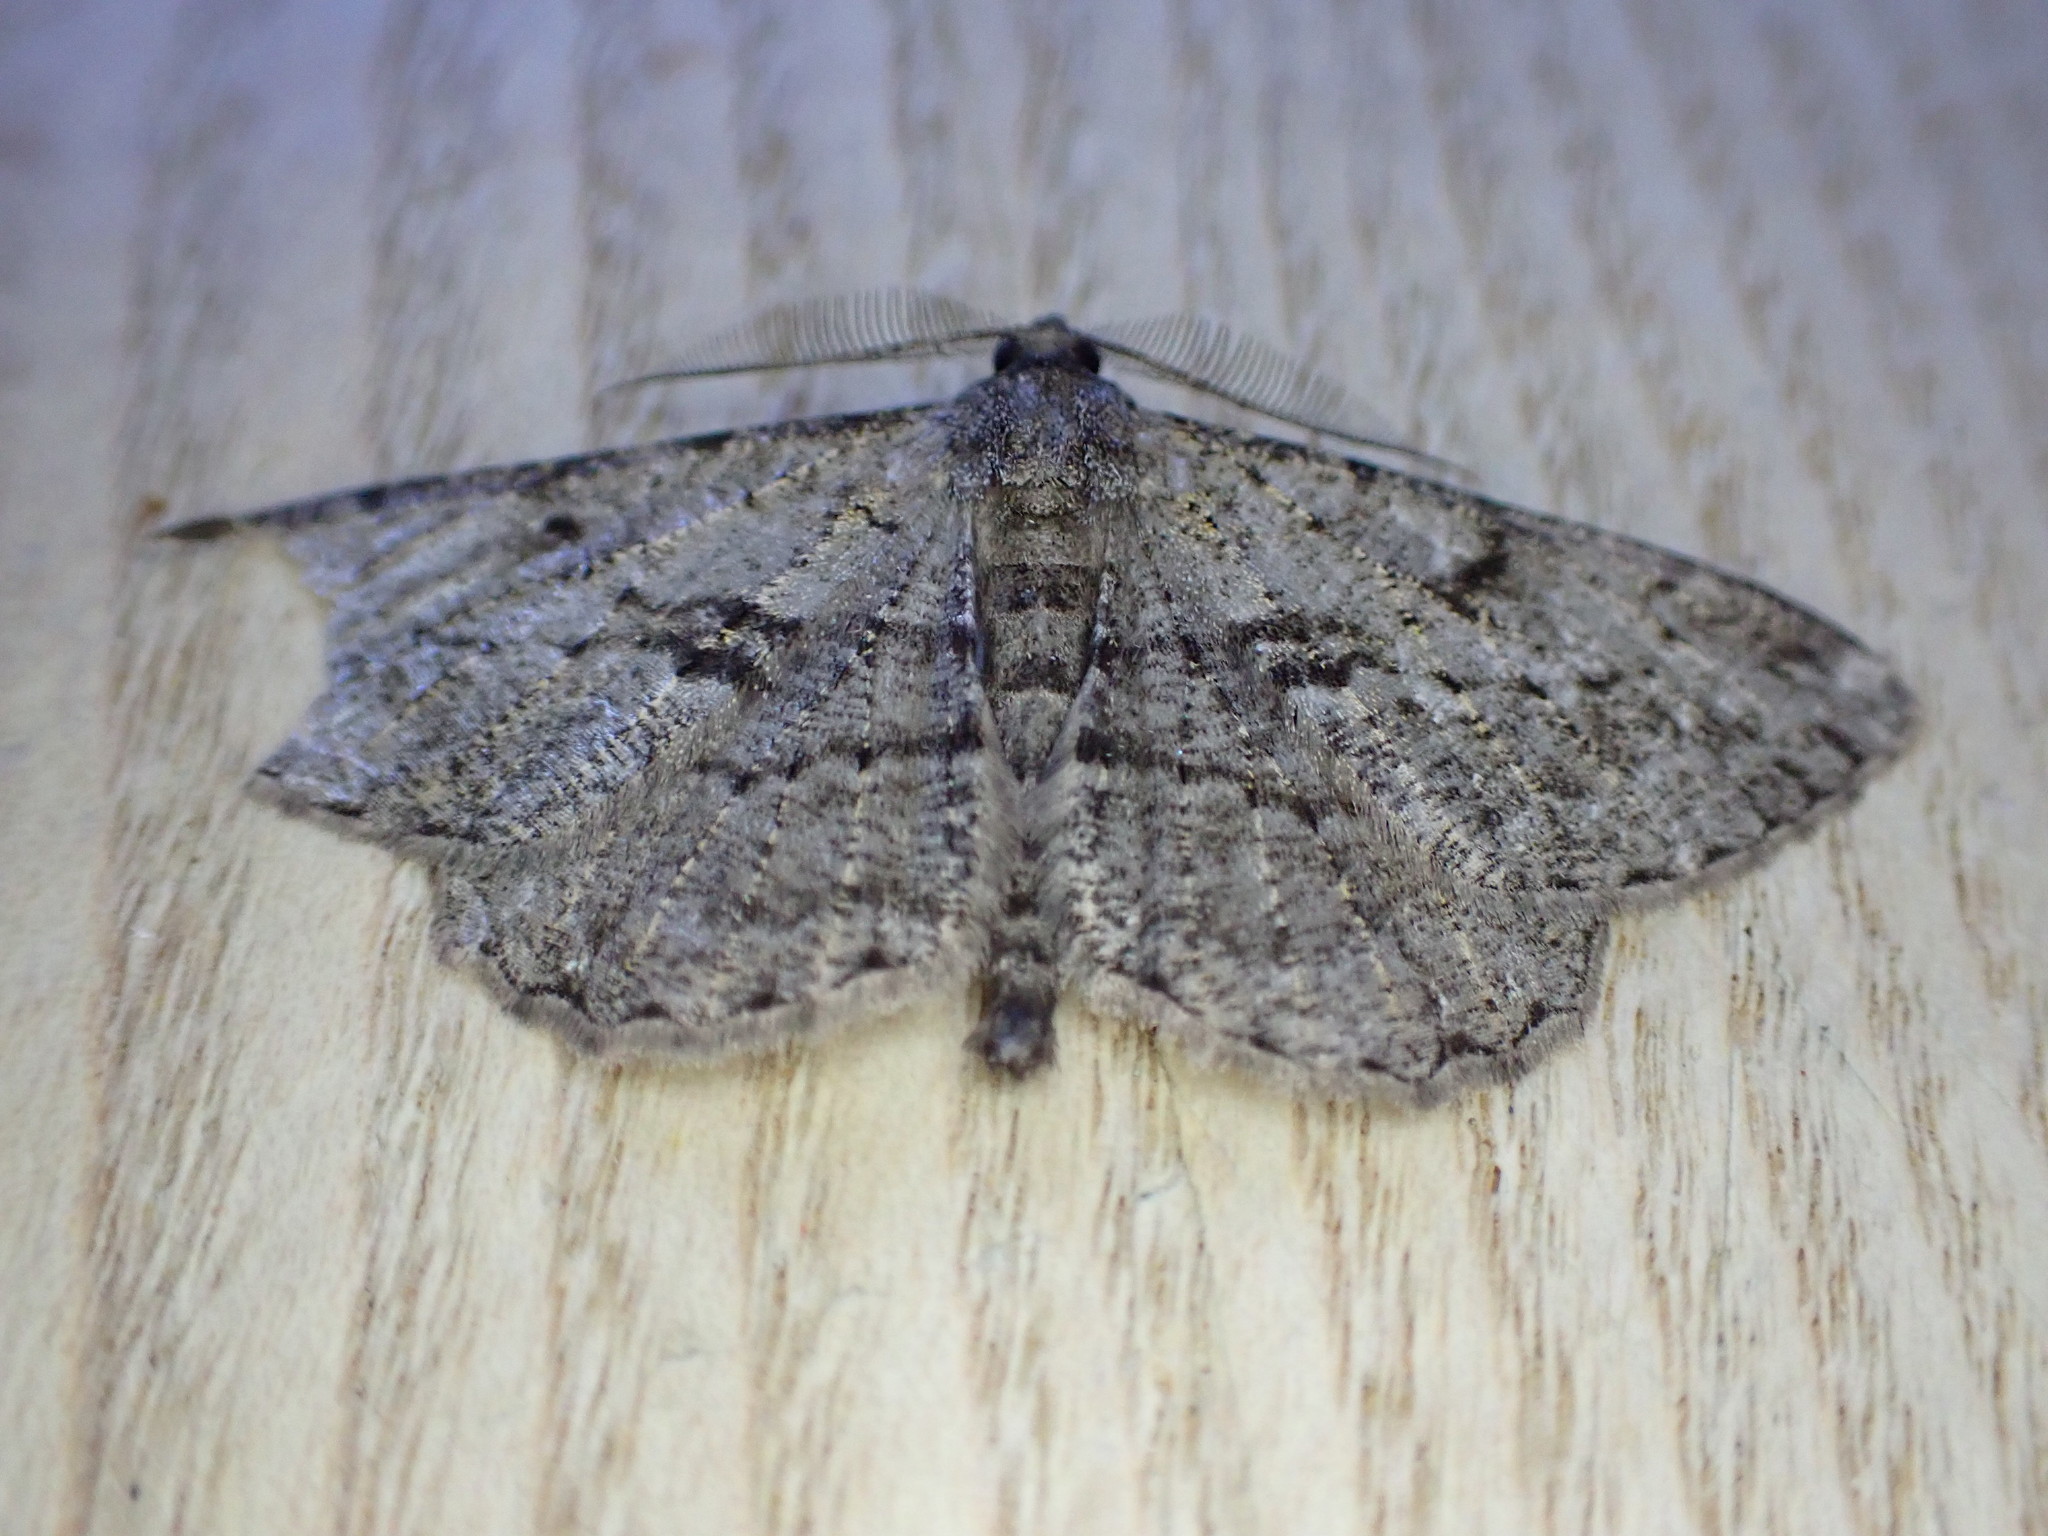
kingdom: Animalia
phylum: Arthropoda
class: Insecta
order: Lepidoptera
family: Geometridae
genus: Peribatodes
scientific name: Peribatodes rhomboidaria
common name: Willow beauty
